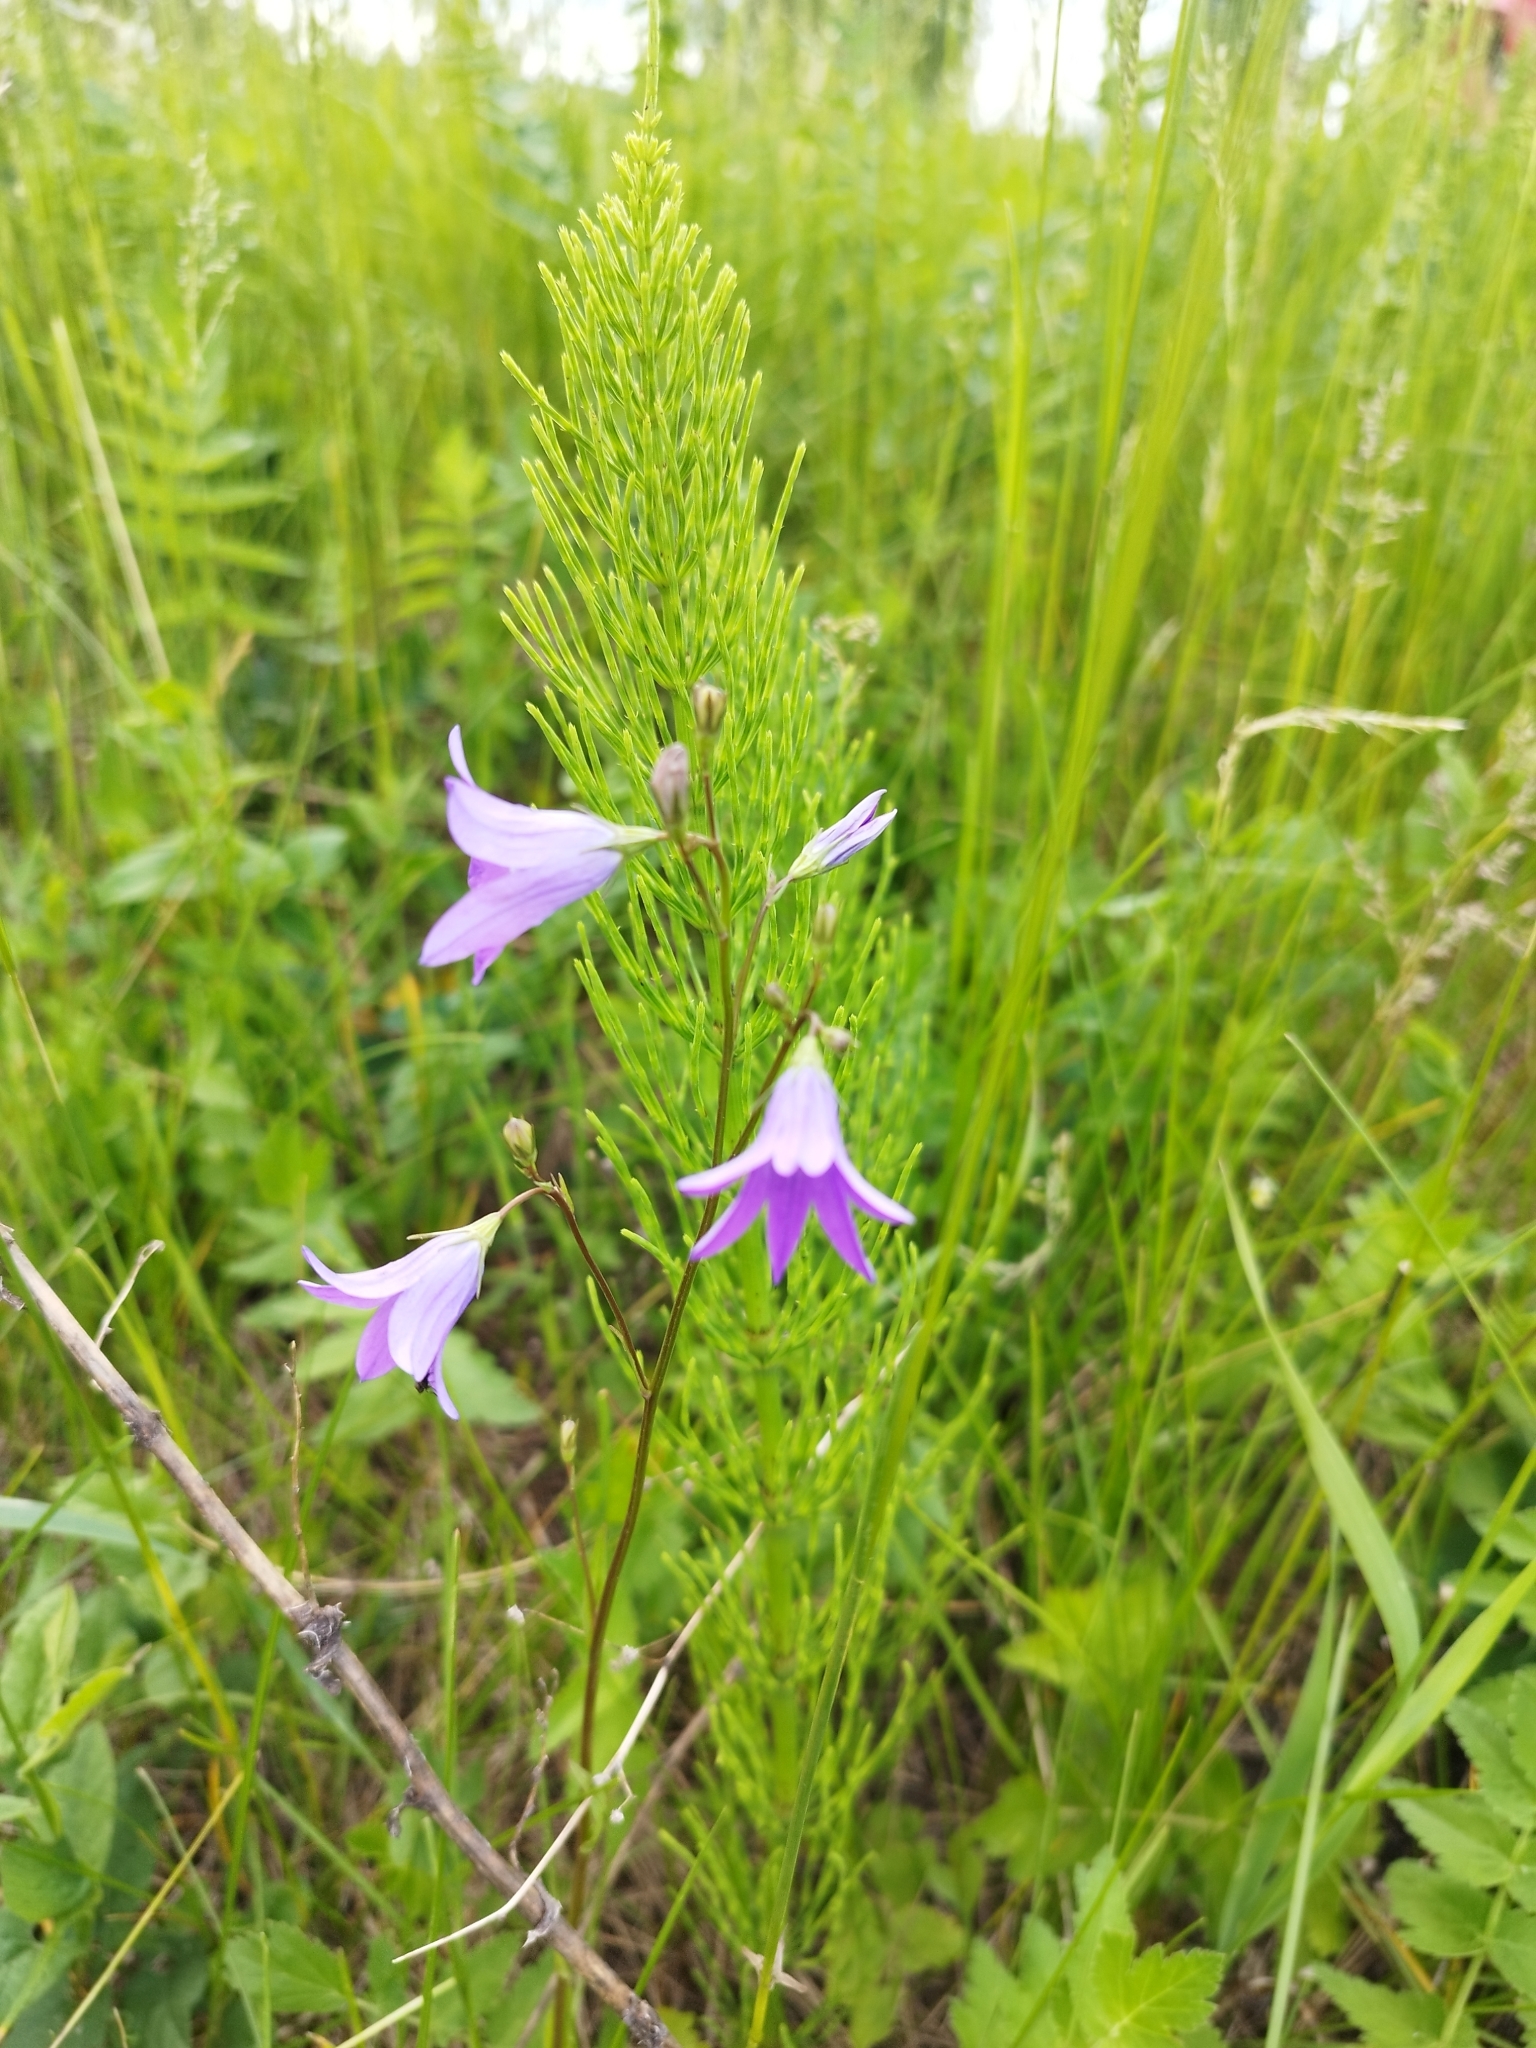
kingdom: Plantae
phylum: Tracheophyta
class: Magnoliopsida
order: Asterales
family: Campanulaceae
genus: Campanula
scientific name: Campanula patula
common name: Spreading bellflower
